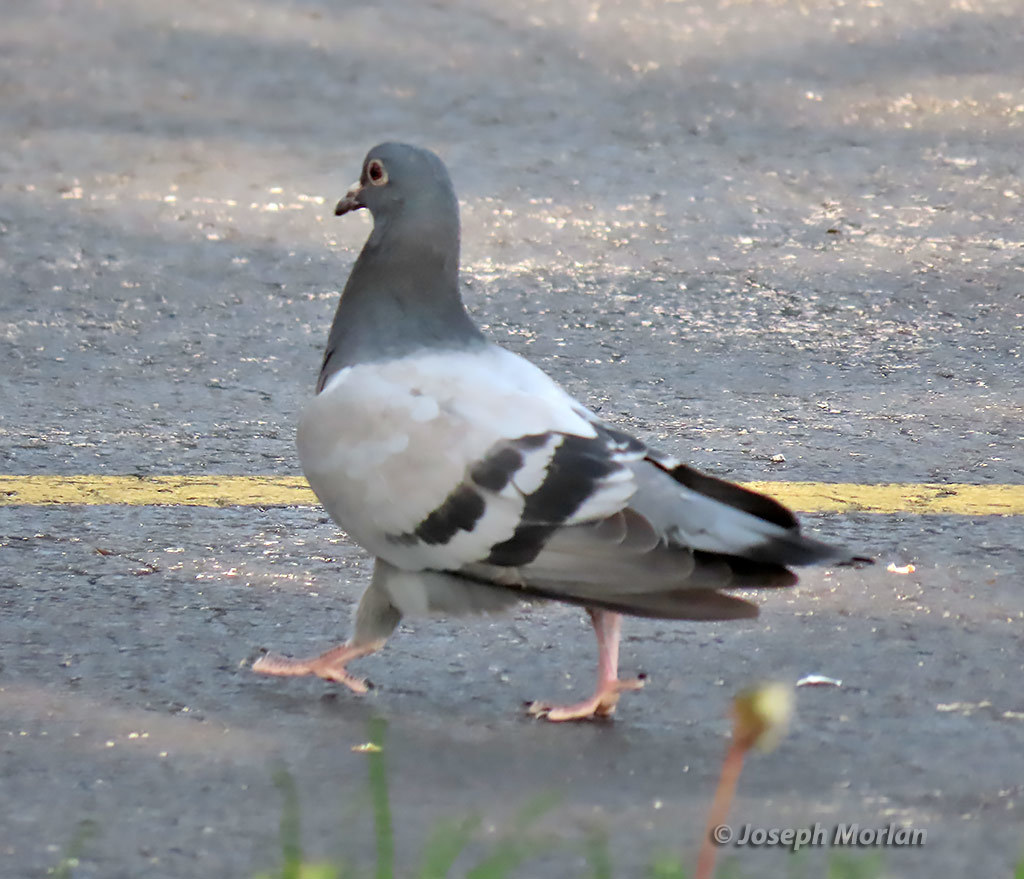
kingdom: Animalia
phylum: Chordata
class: Aves
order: Columbiformes
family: Columbidae
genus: Columba
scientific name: Columba livia
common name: Rock pigeon
